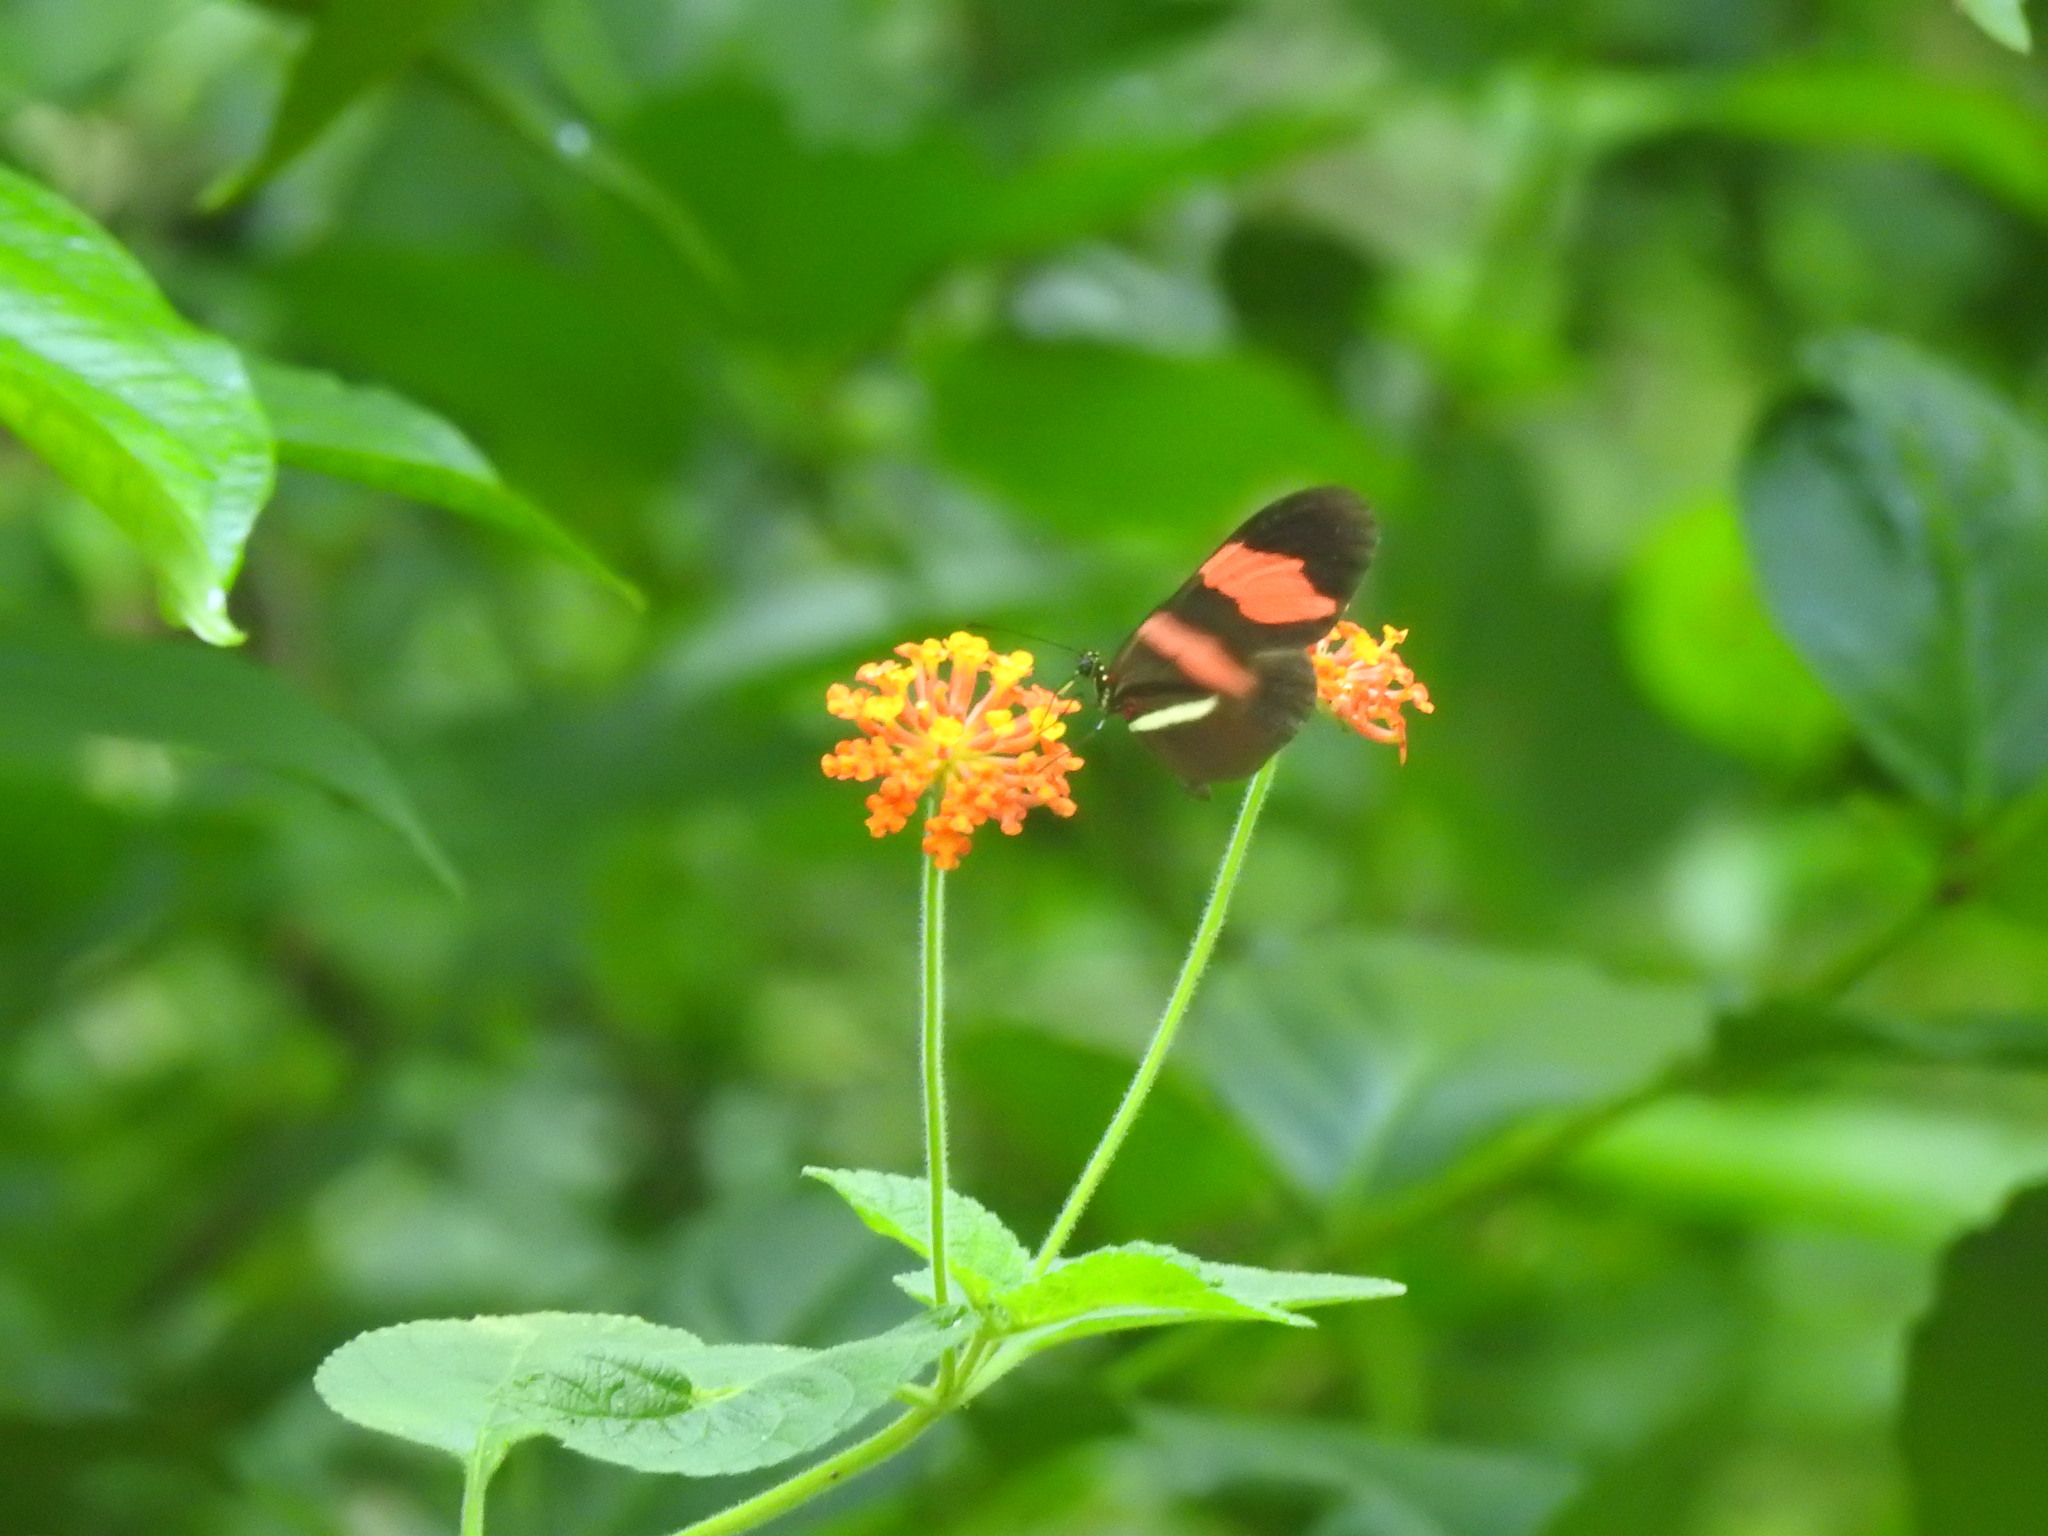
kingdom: Animalia
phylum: Arthropoda
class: Insecta
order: Lepidoptera
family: Nymphalidae
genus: Tirumala
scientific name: Tirumala petiverana
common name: Blue monarch
